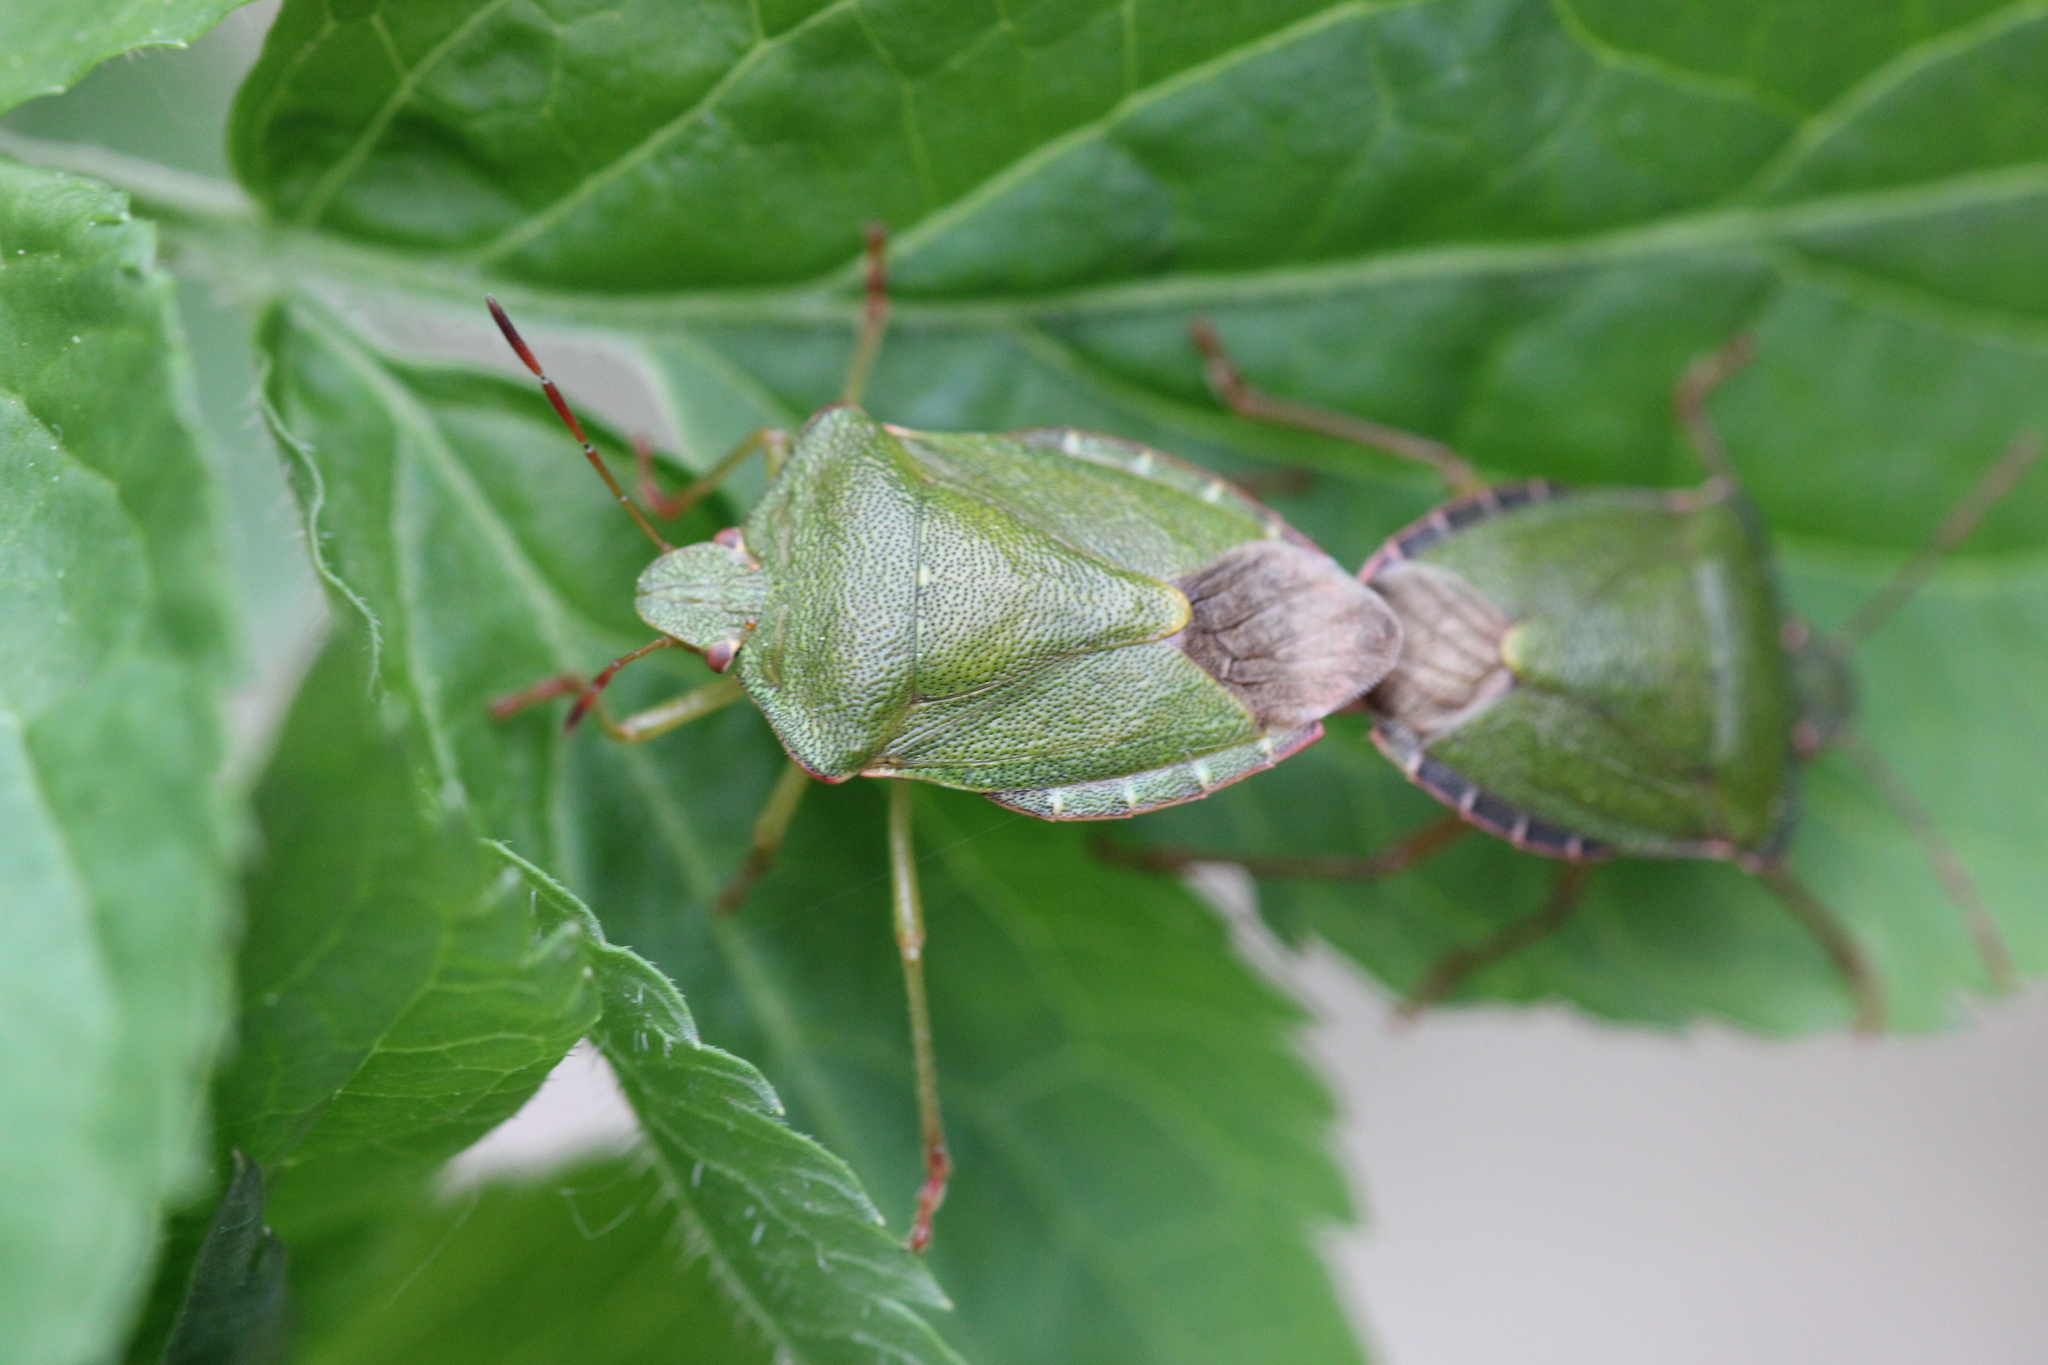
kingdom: Animalia
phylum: Arthropoda
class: Insecta
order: Hemiptera
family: Pentatomidae
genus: Palomena
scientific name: Palomena prasina
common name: Green shieldbug
